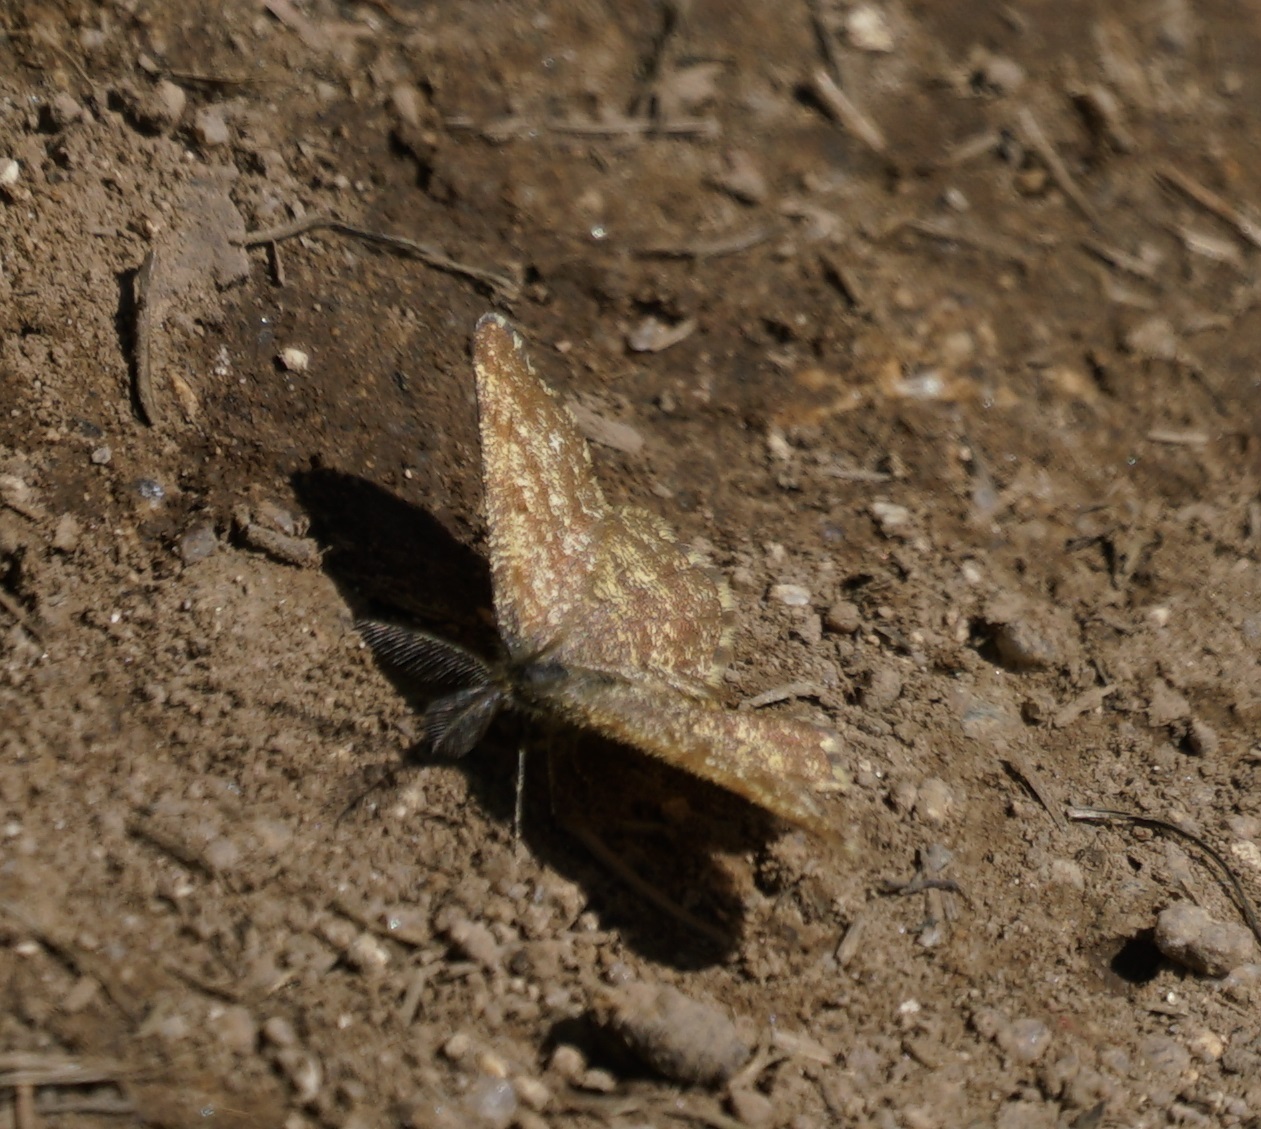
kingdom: Animalia
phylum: Arthropoda
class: Insecta
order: Lepidoptera
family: Geometridae
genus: Ematurga
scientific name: Ematurga atomaria
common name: Common heath
